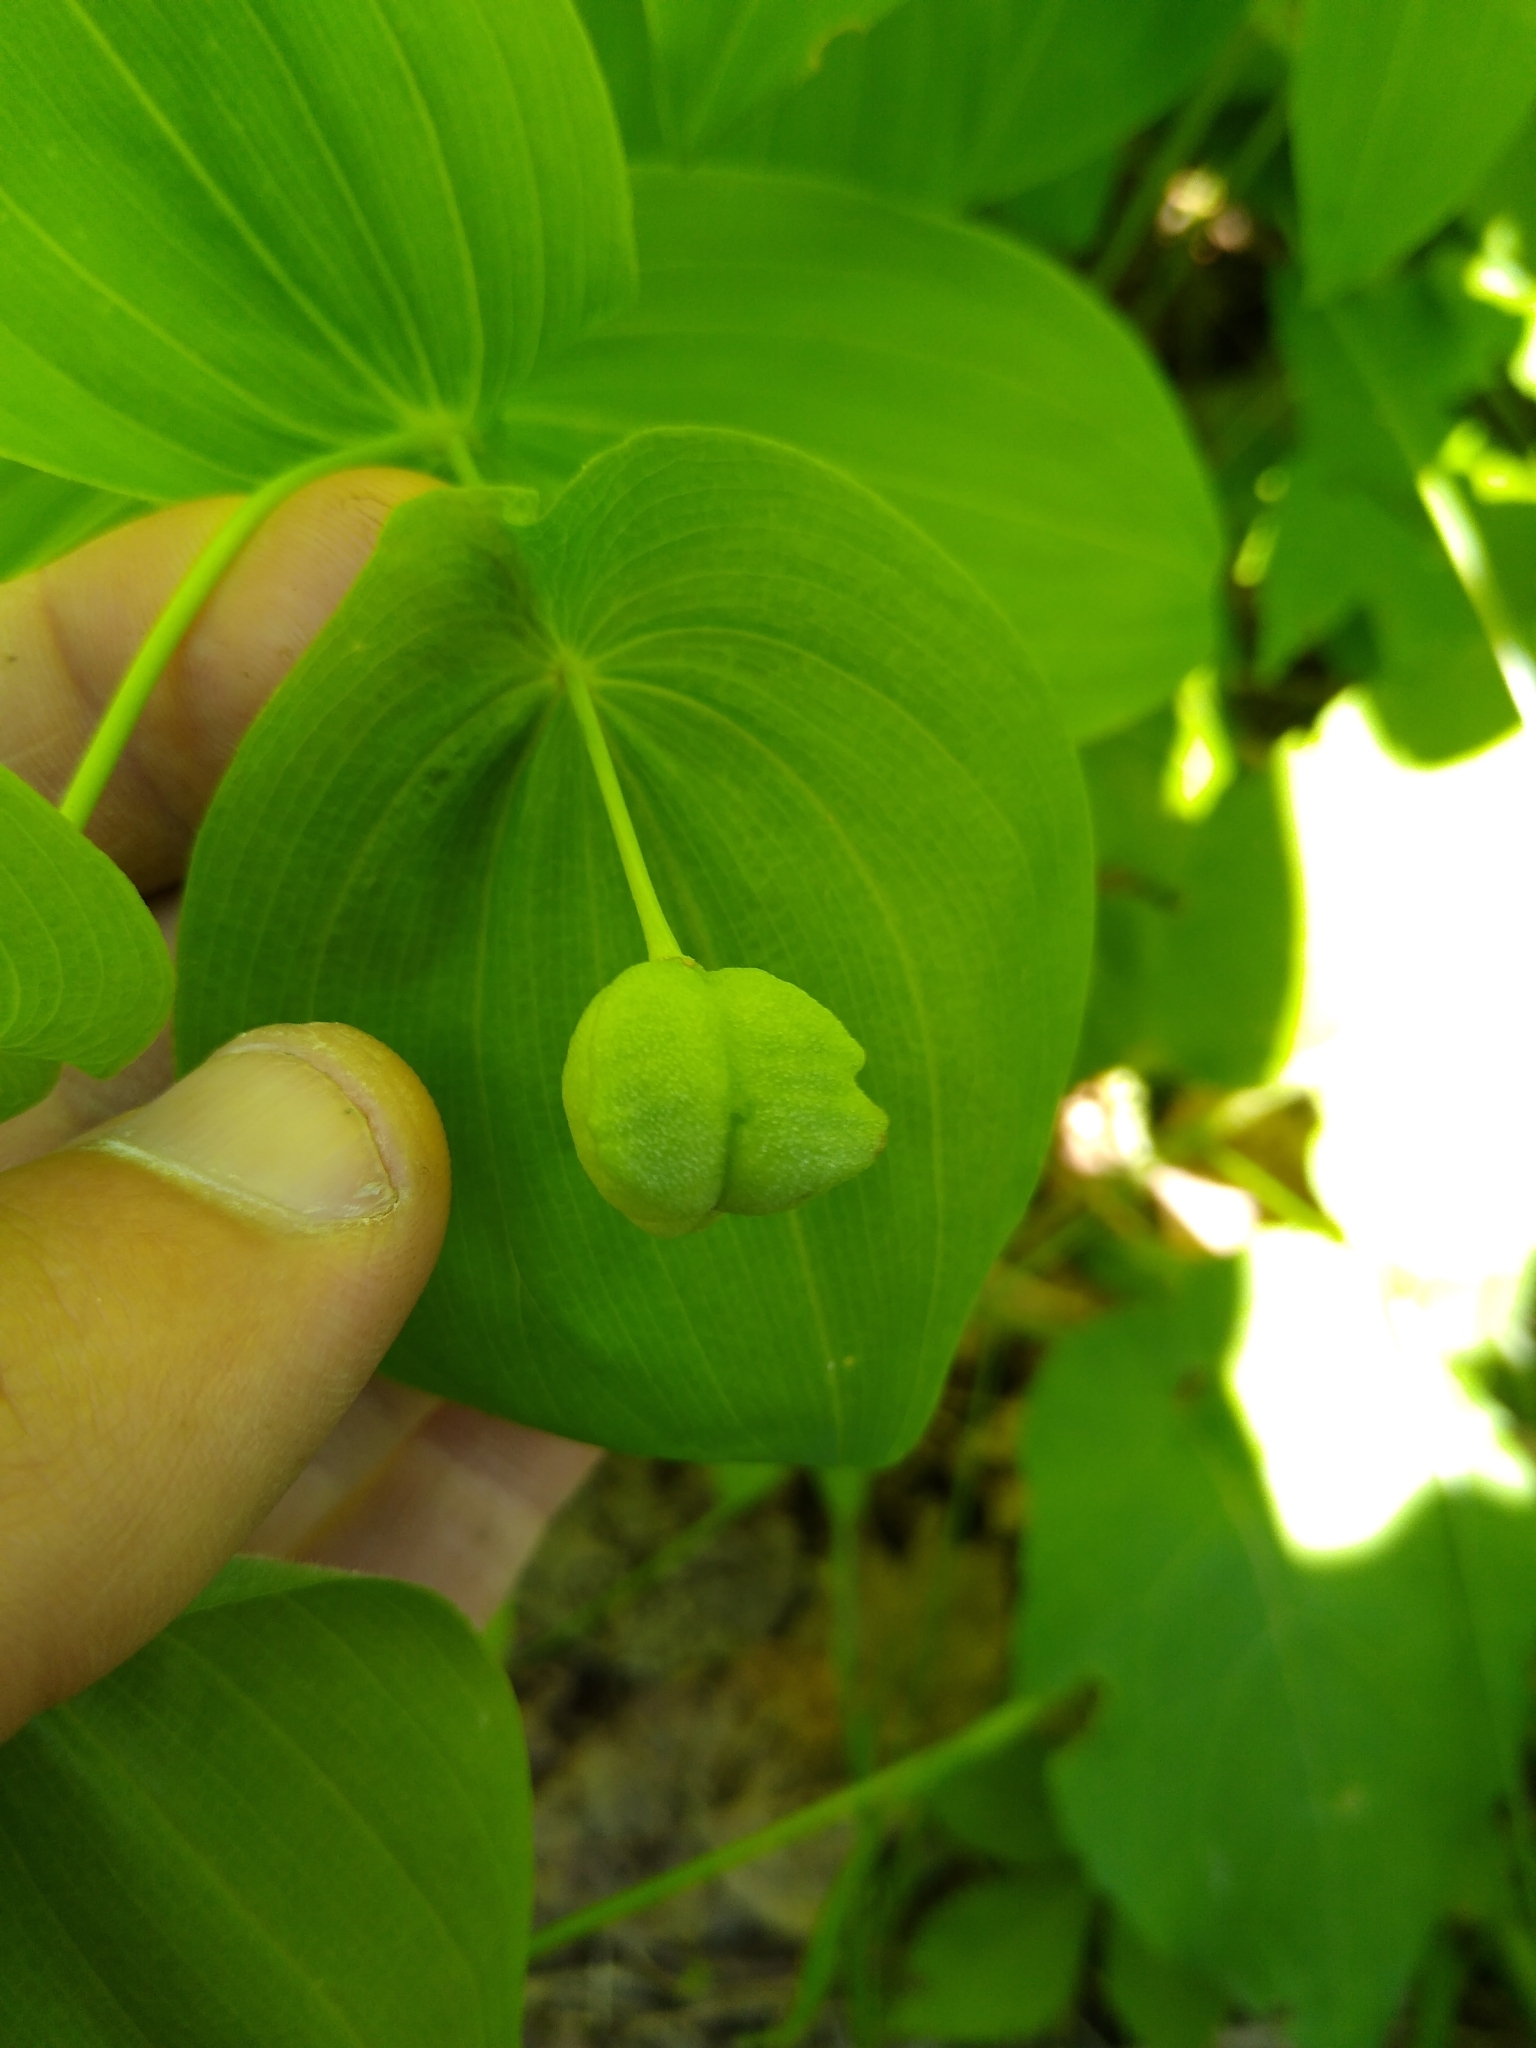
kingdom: Plantae
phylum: Tracheophyta
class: Liliopsida
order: Liliales
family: Colchicaceae
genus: Uvularia
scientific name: Uvularia grandiflora
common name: Bellwort
